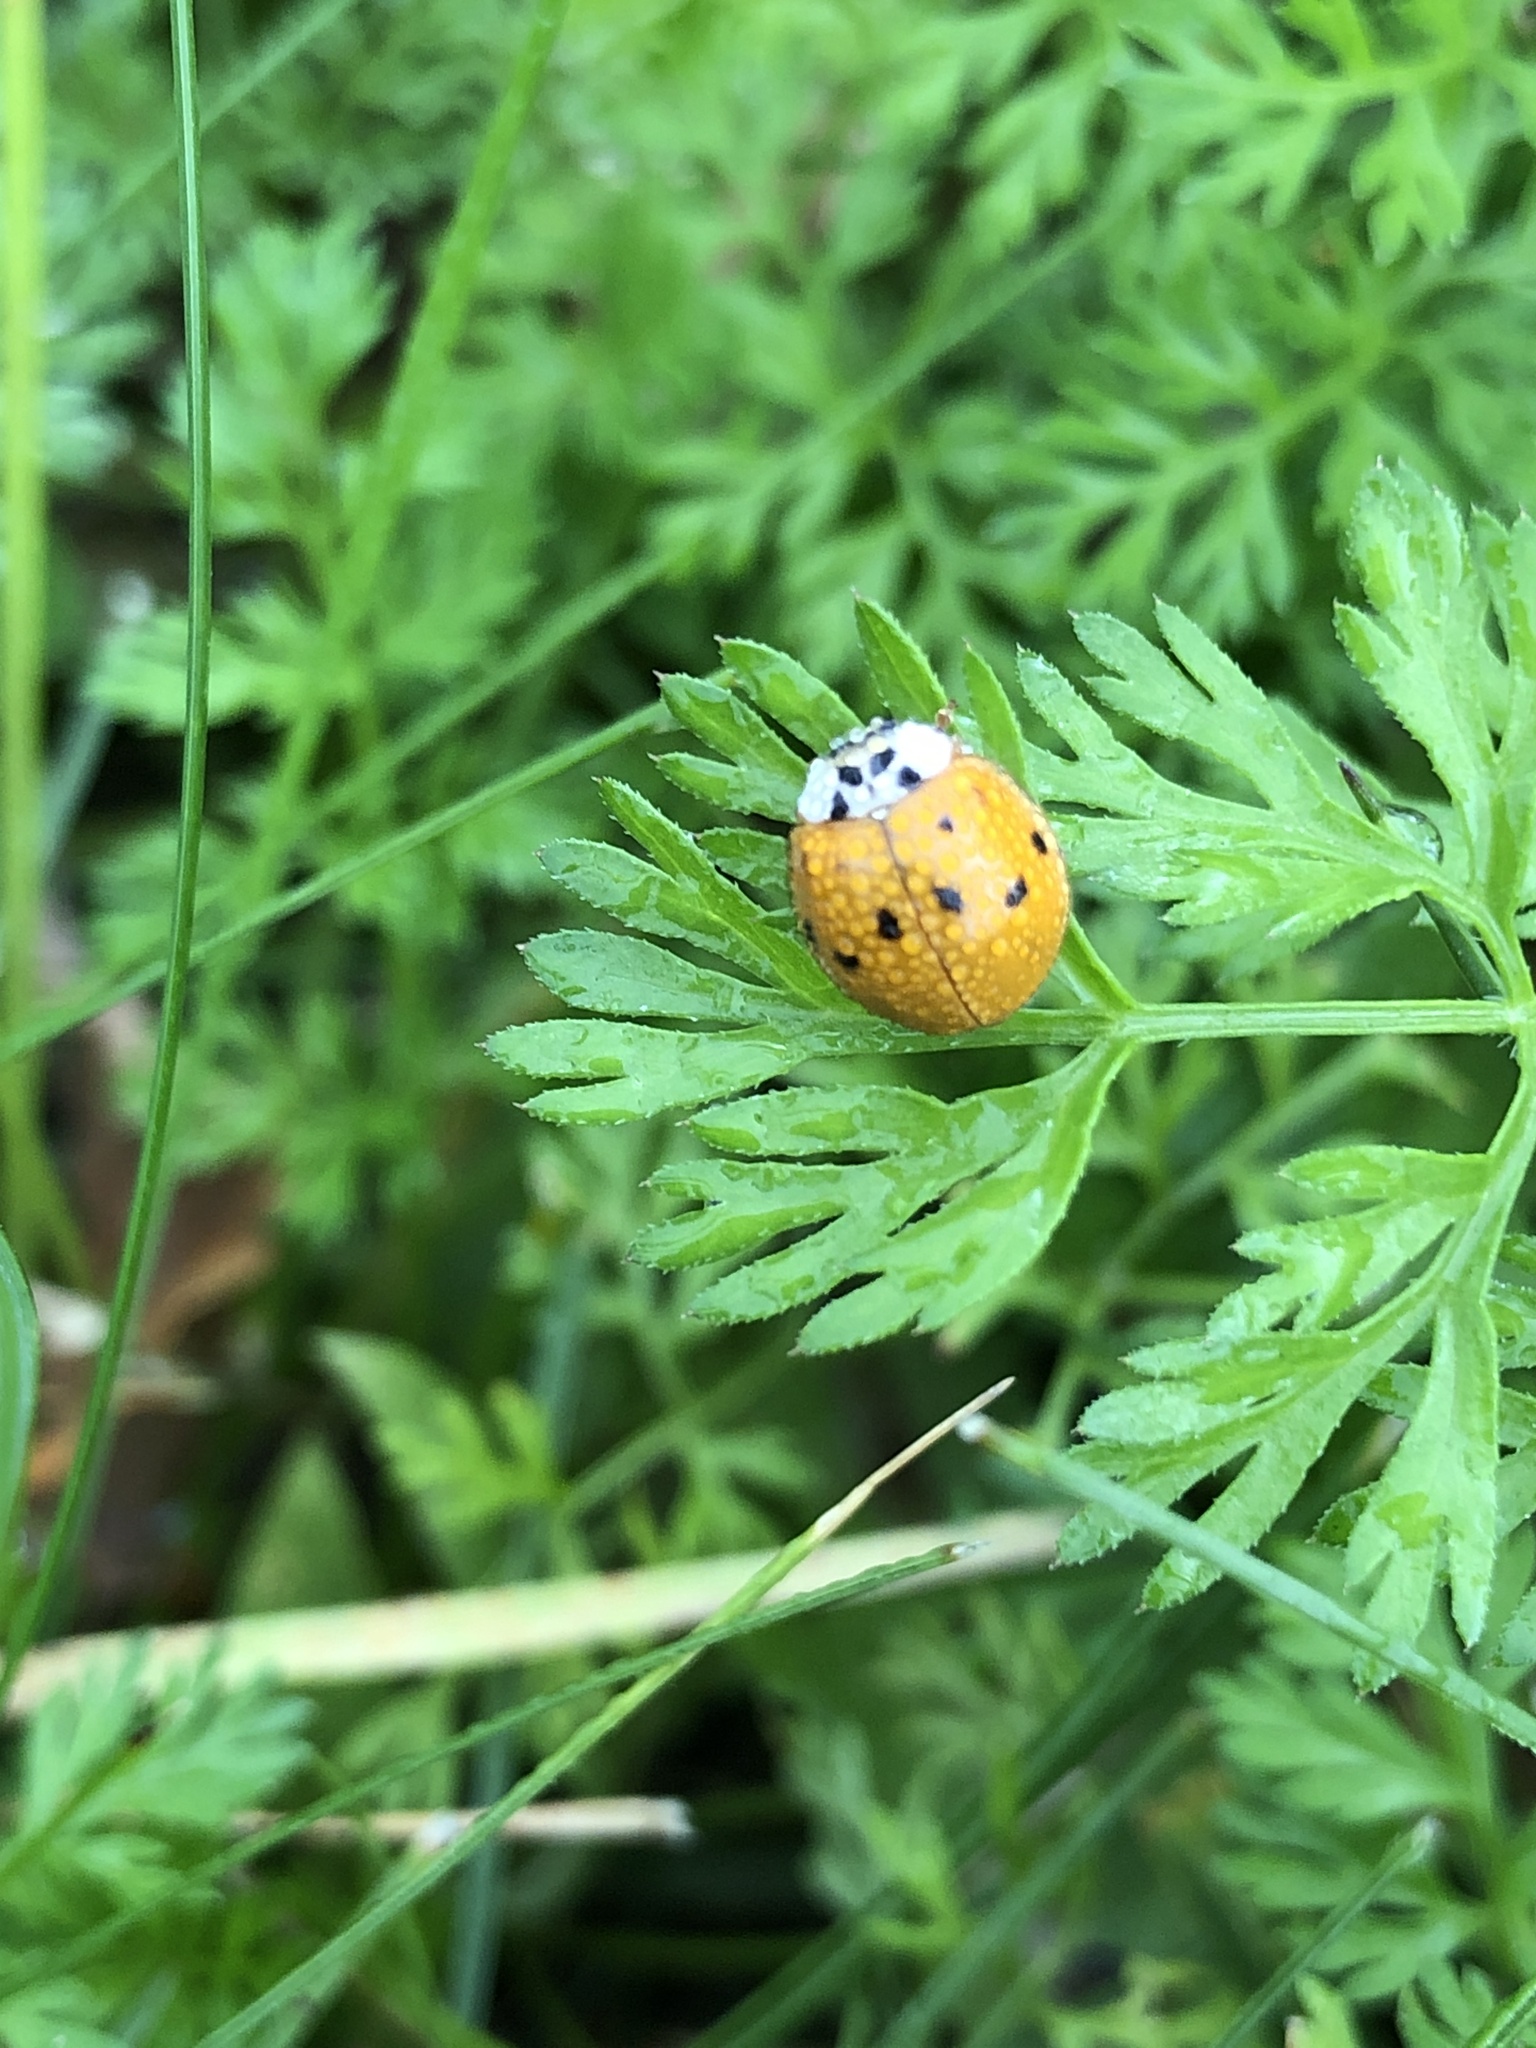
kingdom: Animalia
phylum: Arthropoda
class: Insecta
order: Coleoptera
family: Coccinellidae
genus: Harmonia
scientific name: Harmonia axyridis
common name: Harlequin ladybird
